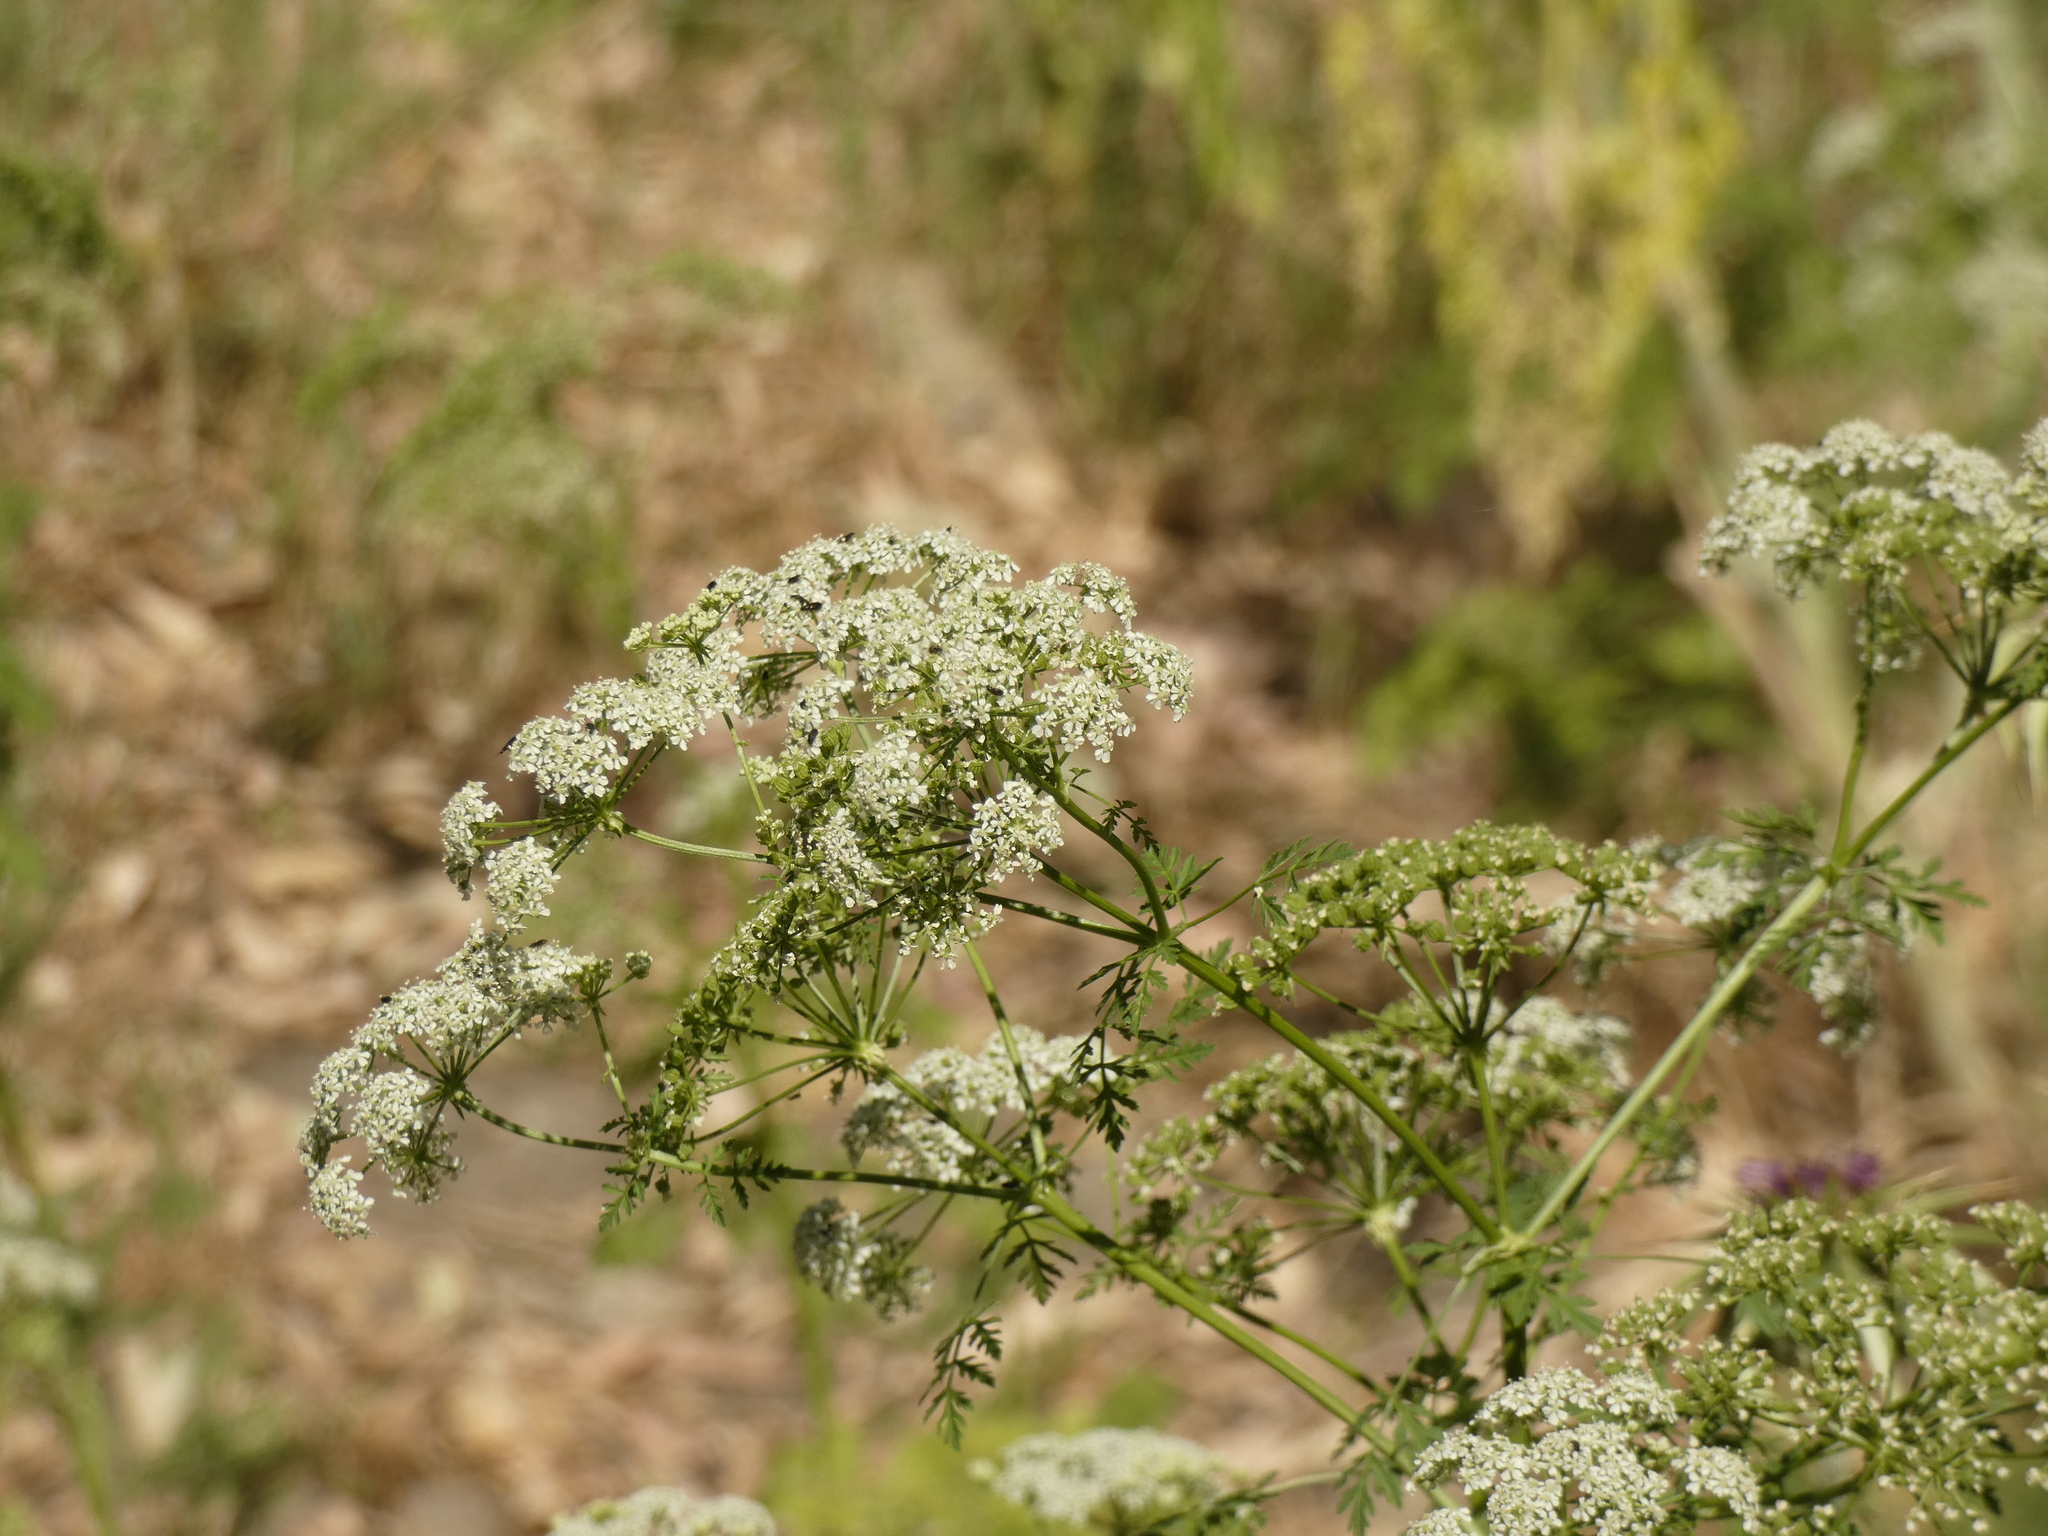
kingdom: Plantae
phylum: Tracheophyta
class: Magnoliopsida
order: Apiales
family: Apiaceae
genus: Conium
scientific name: Conium maculatum
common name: Hemlock
